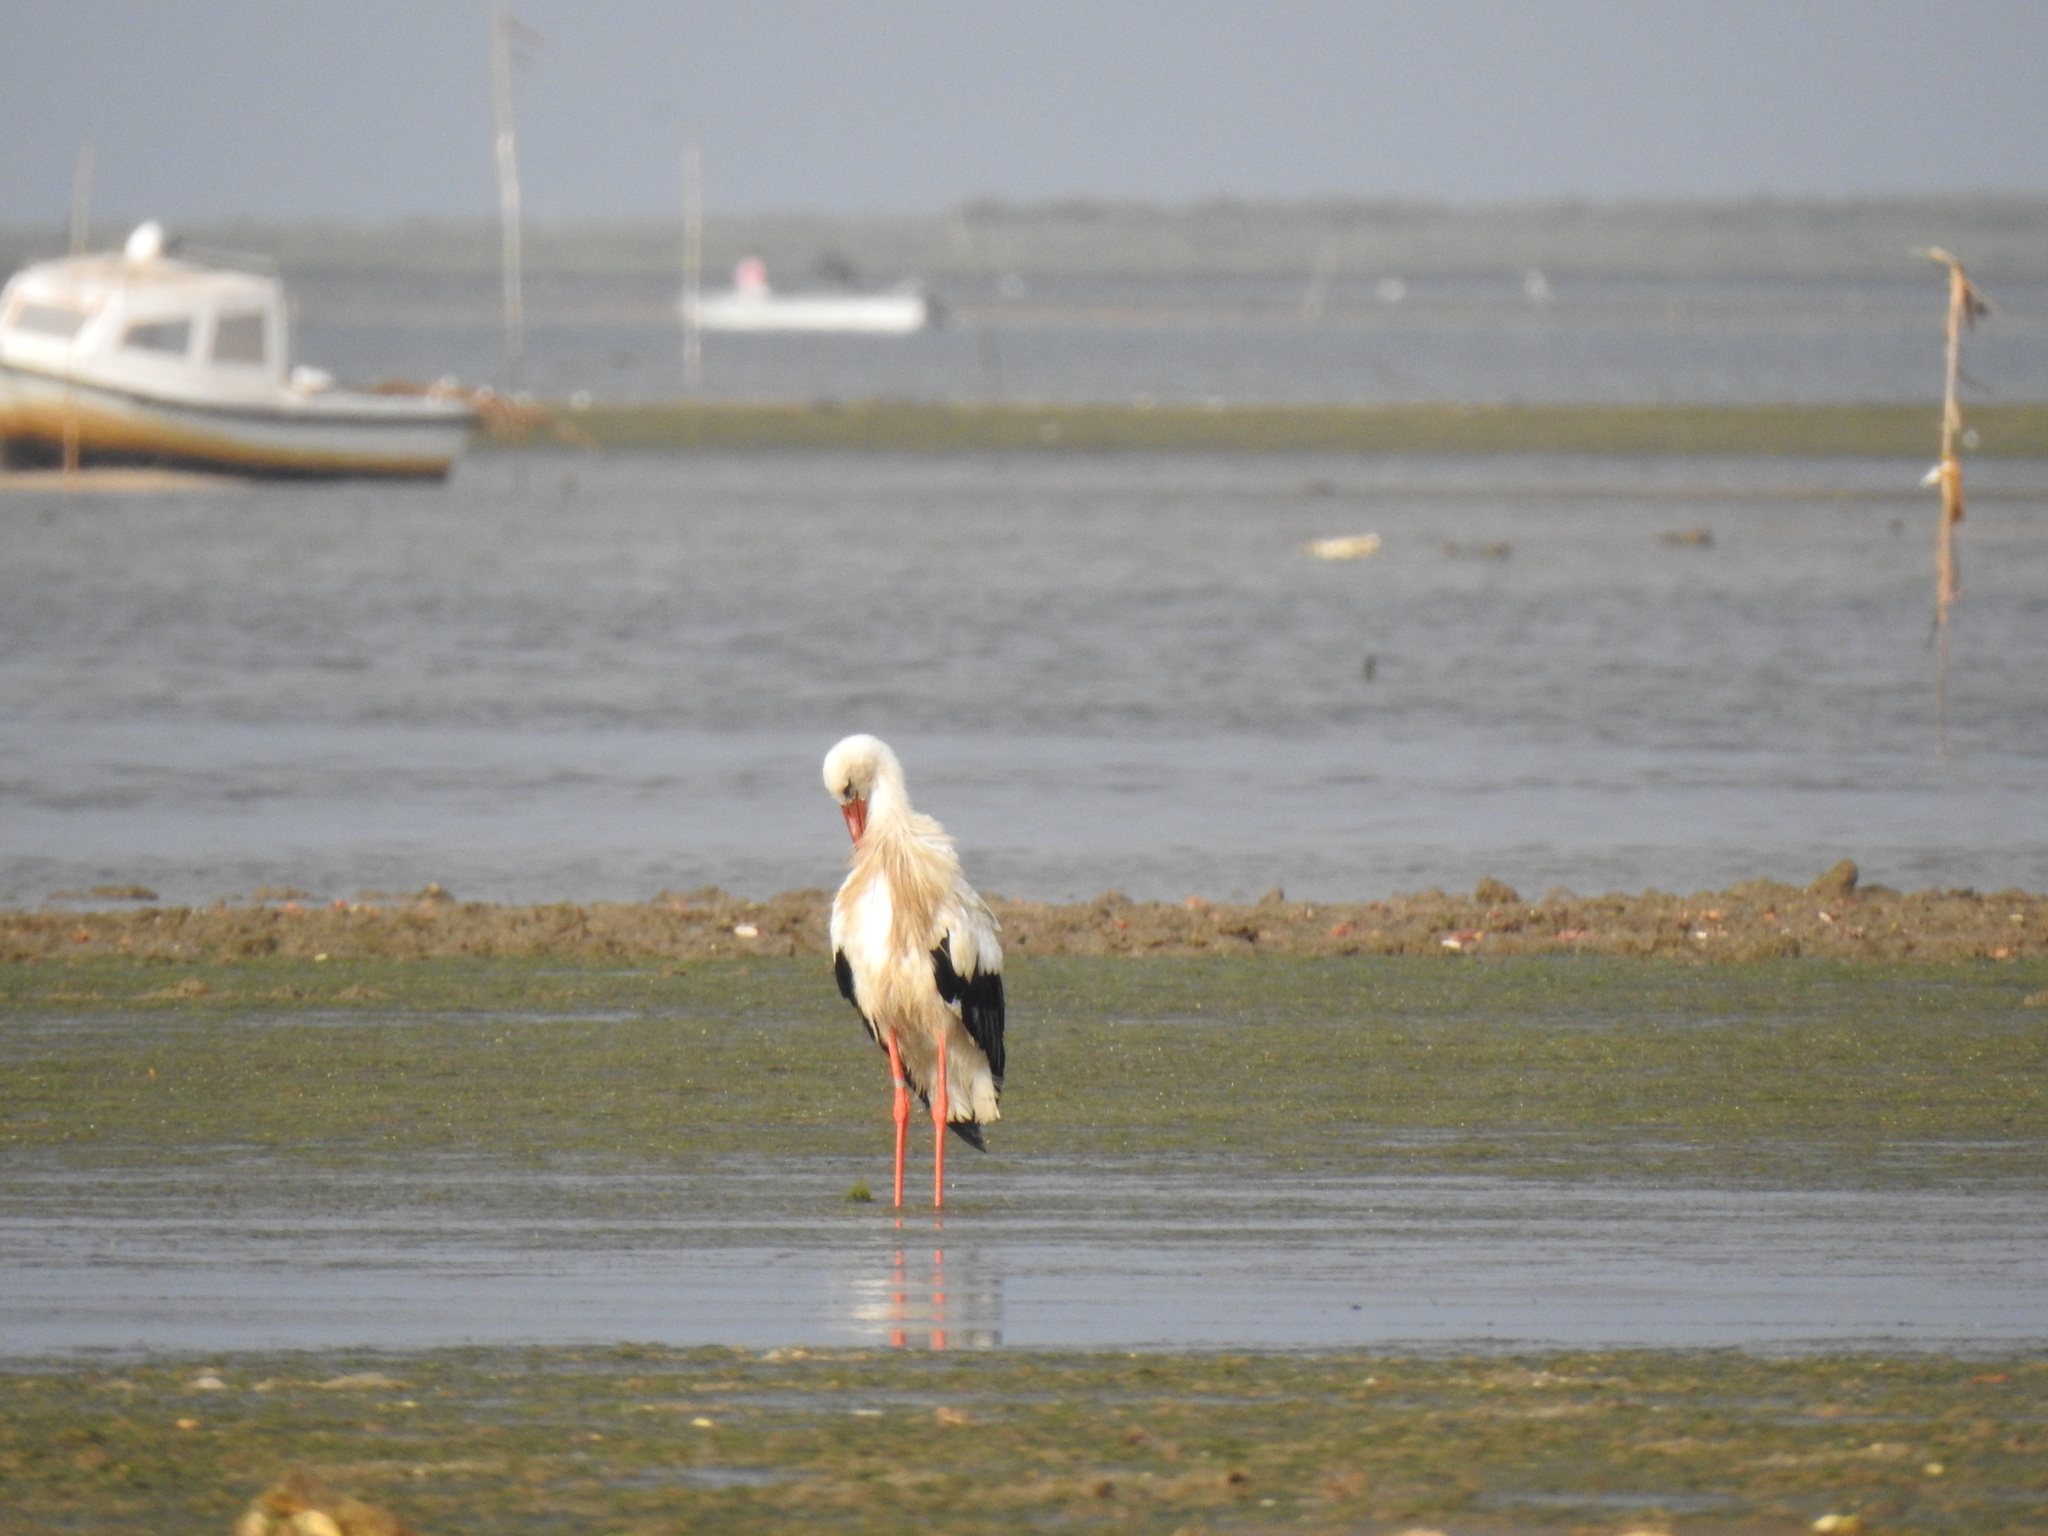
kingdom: Animalia
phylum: Chordata
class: Aves
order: Ciconiiformes
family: Ciconiidae
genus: Ciconia
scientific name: Ciconia ciconia
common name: White stork
